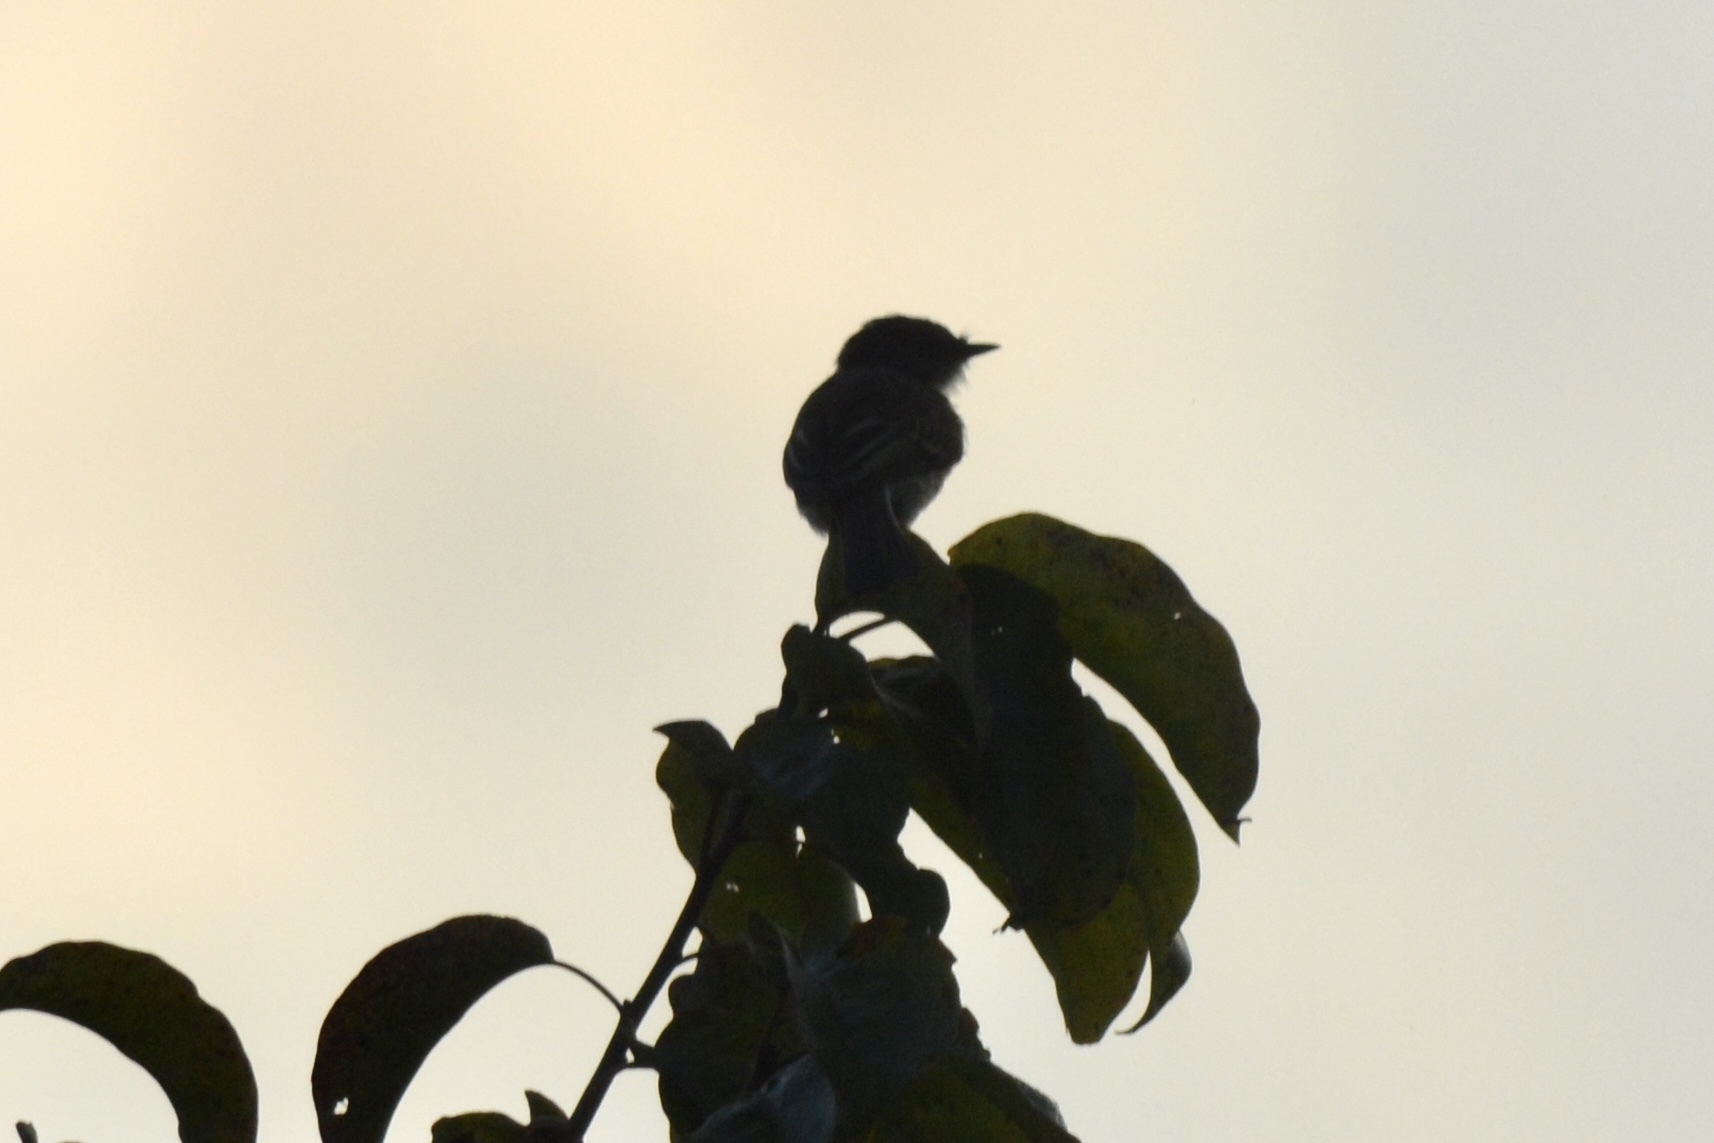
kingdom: Animalia
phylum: Chordata
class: Aves
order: Passeriformes
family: Tyrannidae
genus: Sayornis
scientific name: Sayornis phoebe
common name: Eastern phoebe
